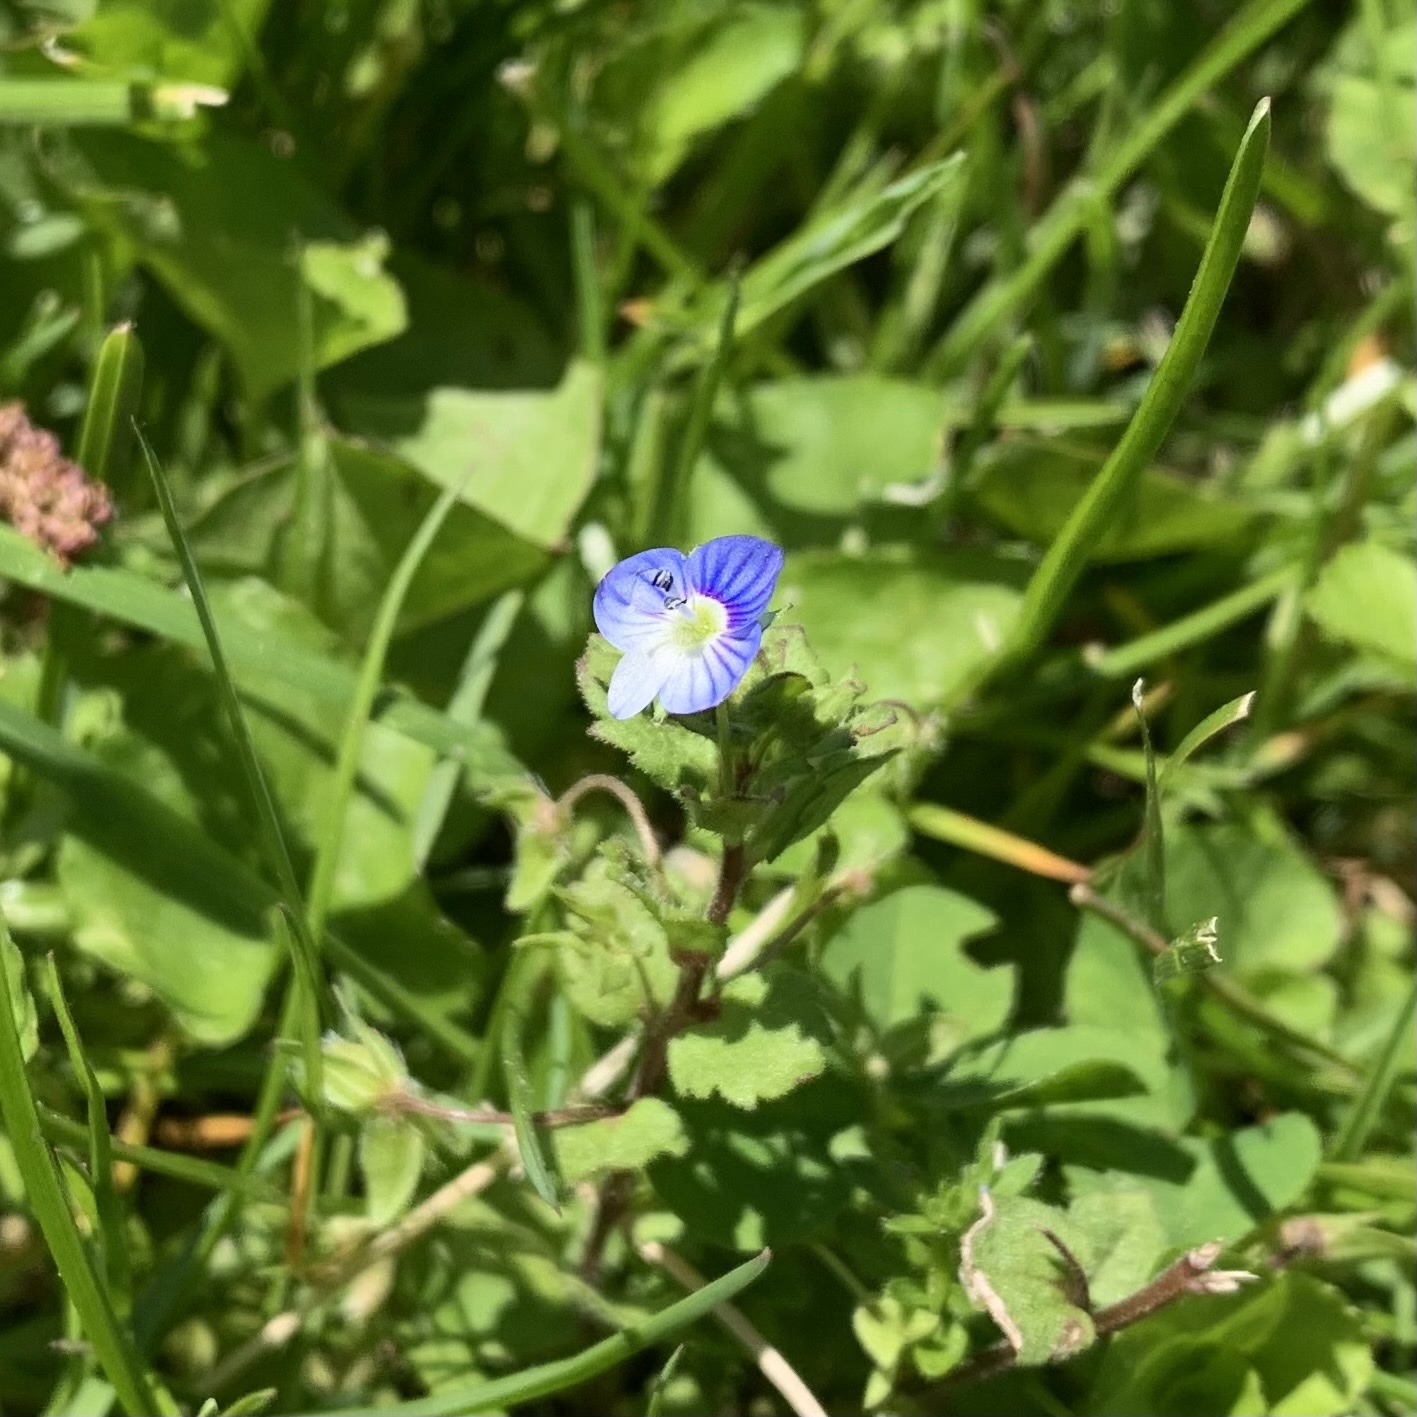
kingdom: Plantae
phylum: Tracheophyta
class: Magnoliopsida
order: Lamiales
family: Plantaginaceae
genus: Veronica
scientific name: Veronica persica
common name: Common field-speedwell
